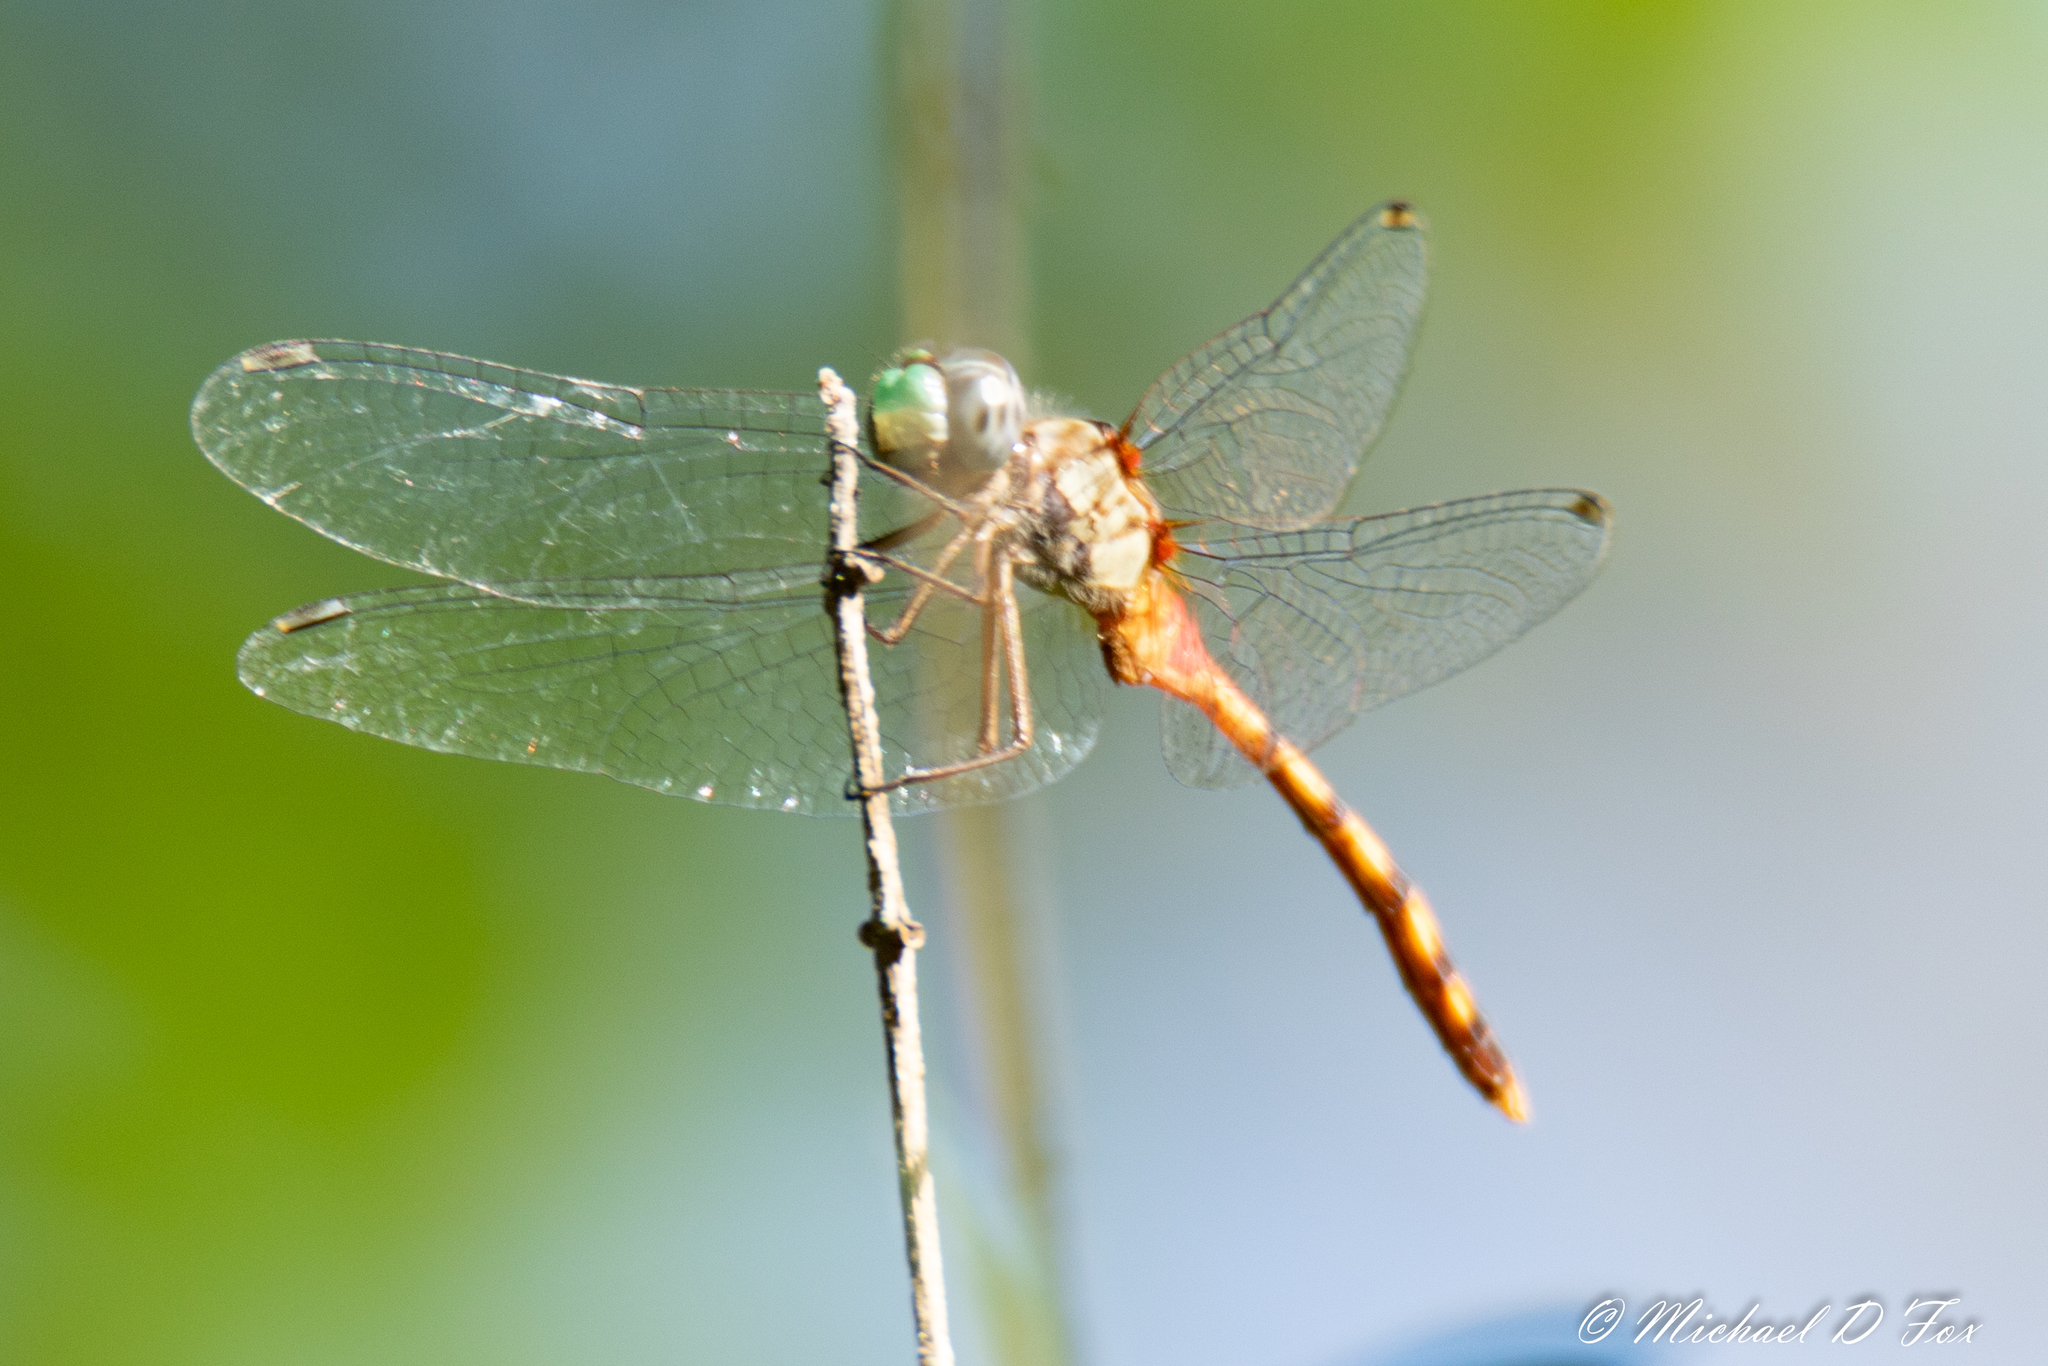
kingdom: Animalia
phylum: Arthropoda
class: Insecta
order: Odonata
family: Libellulidae
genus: Sympetrum
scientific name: Sympetrum ambiguum
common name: Blue-faced meadowhawk
